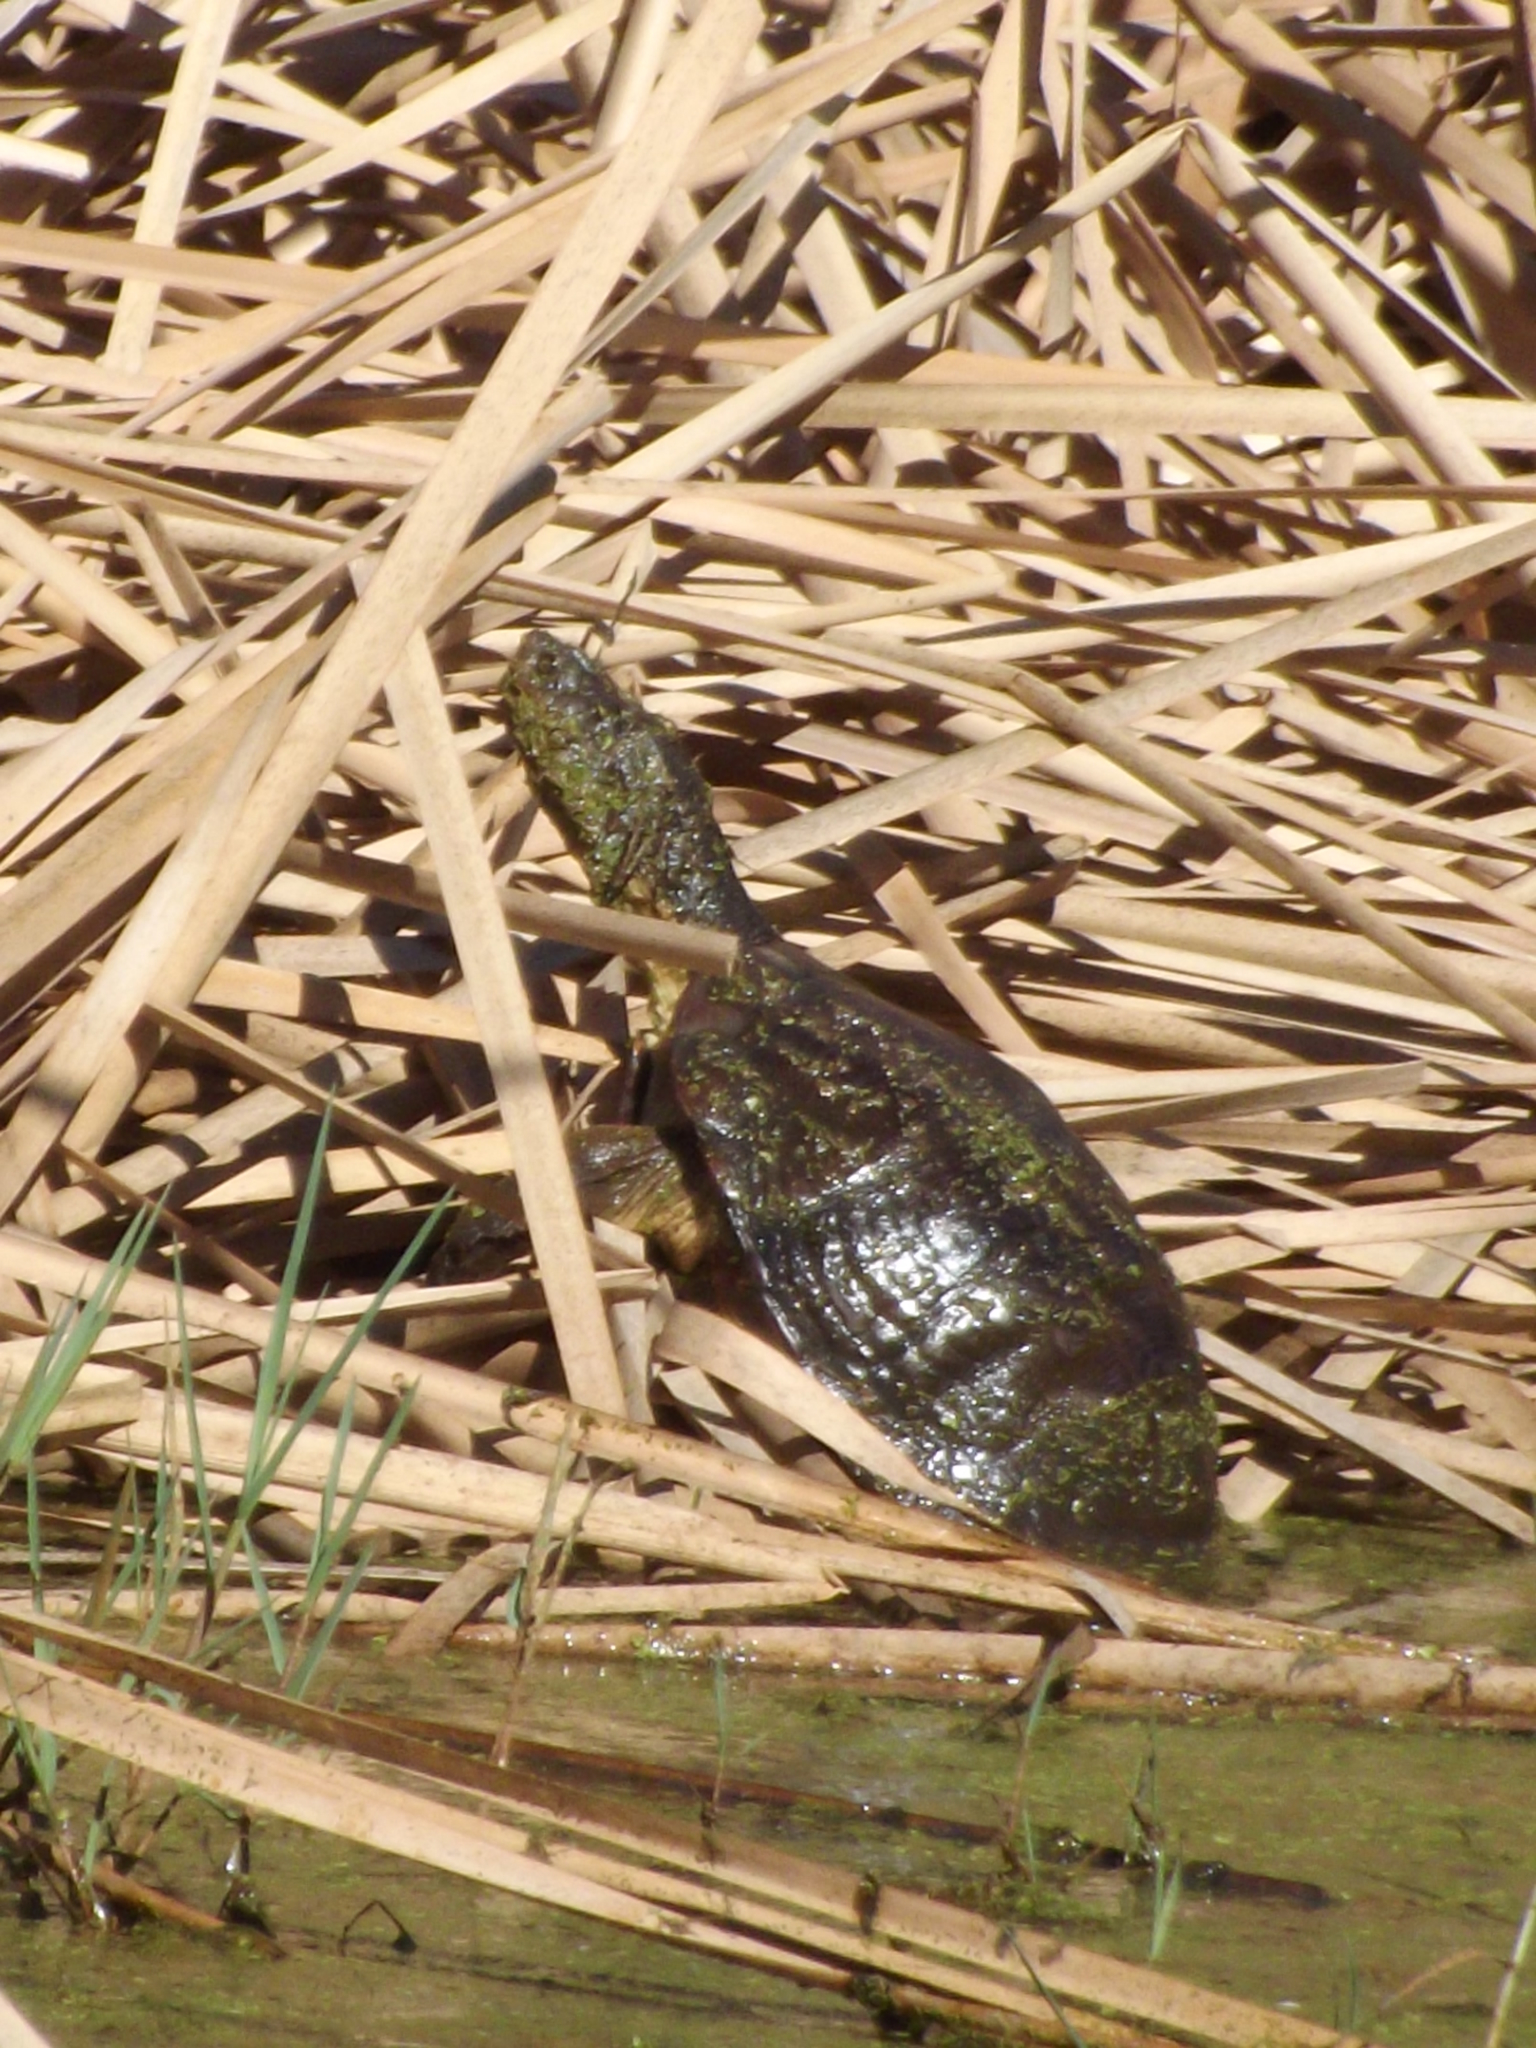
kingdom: Animalia
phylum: Chordata
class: Testudines
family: Pelomedusidae
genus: Pelomedusa
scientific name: Pelomedusa galeata
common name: South african helmeted terrapin
